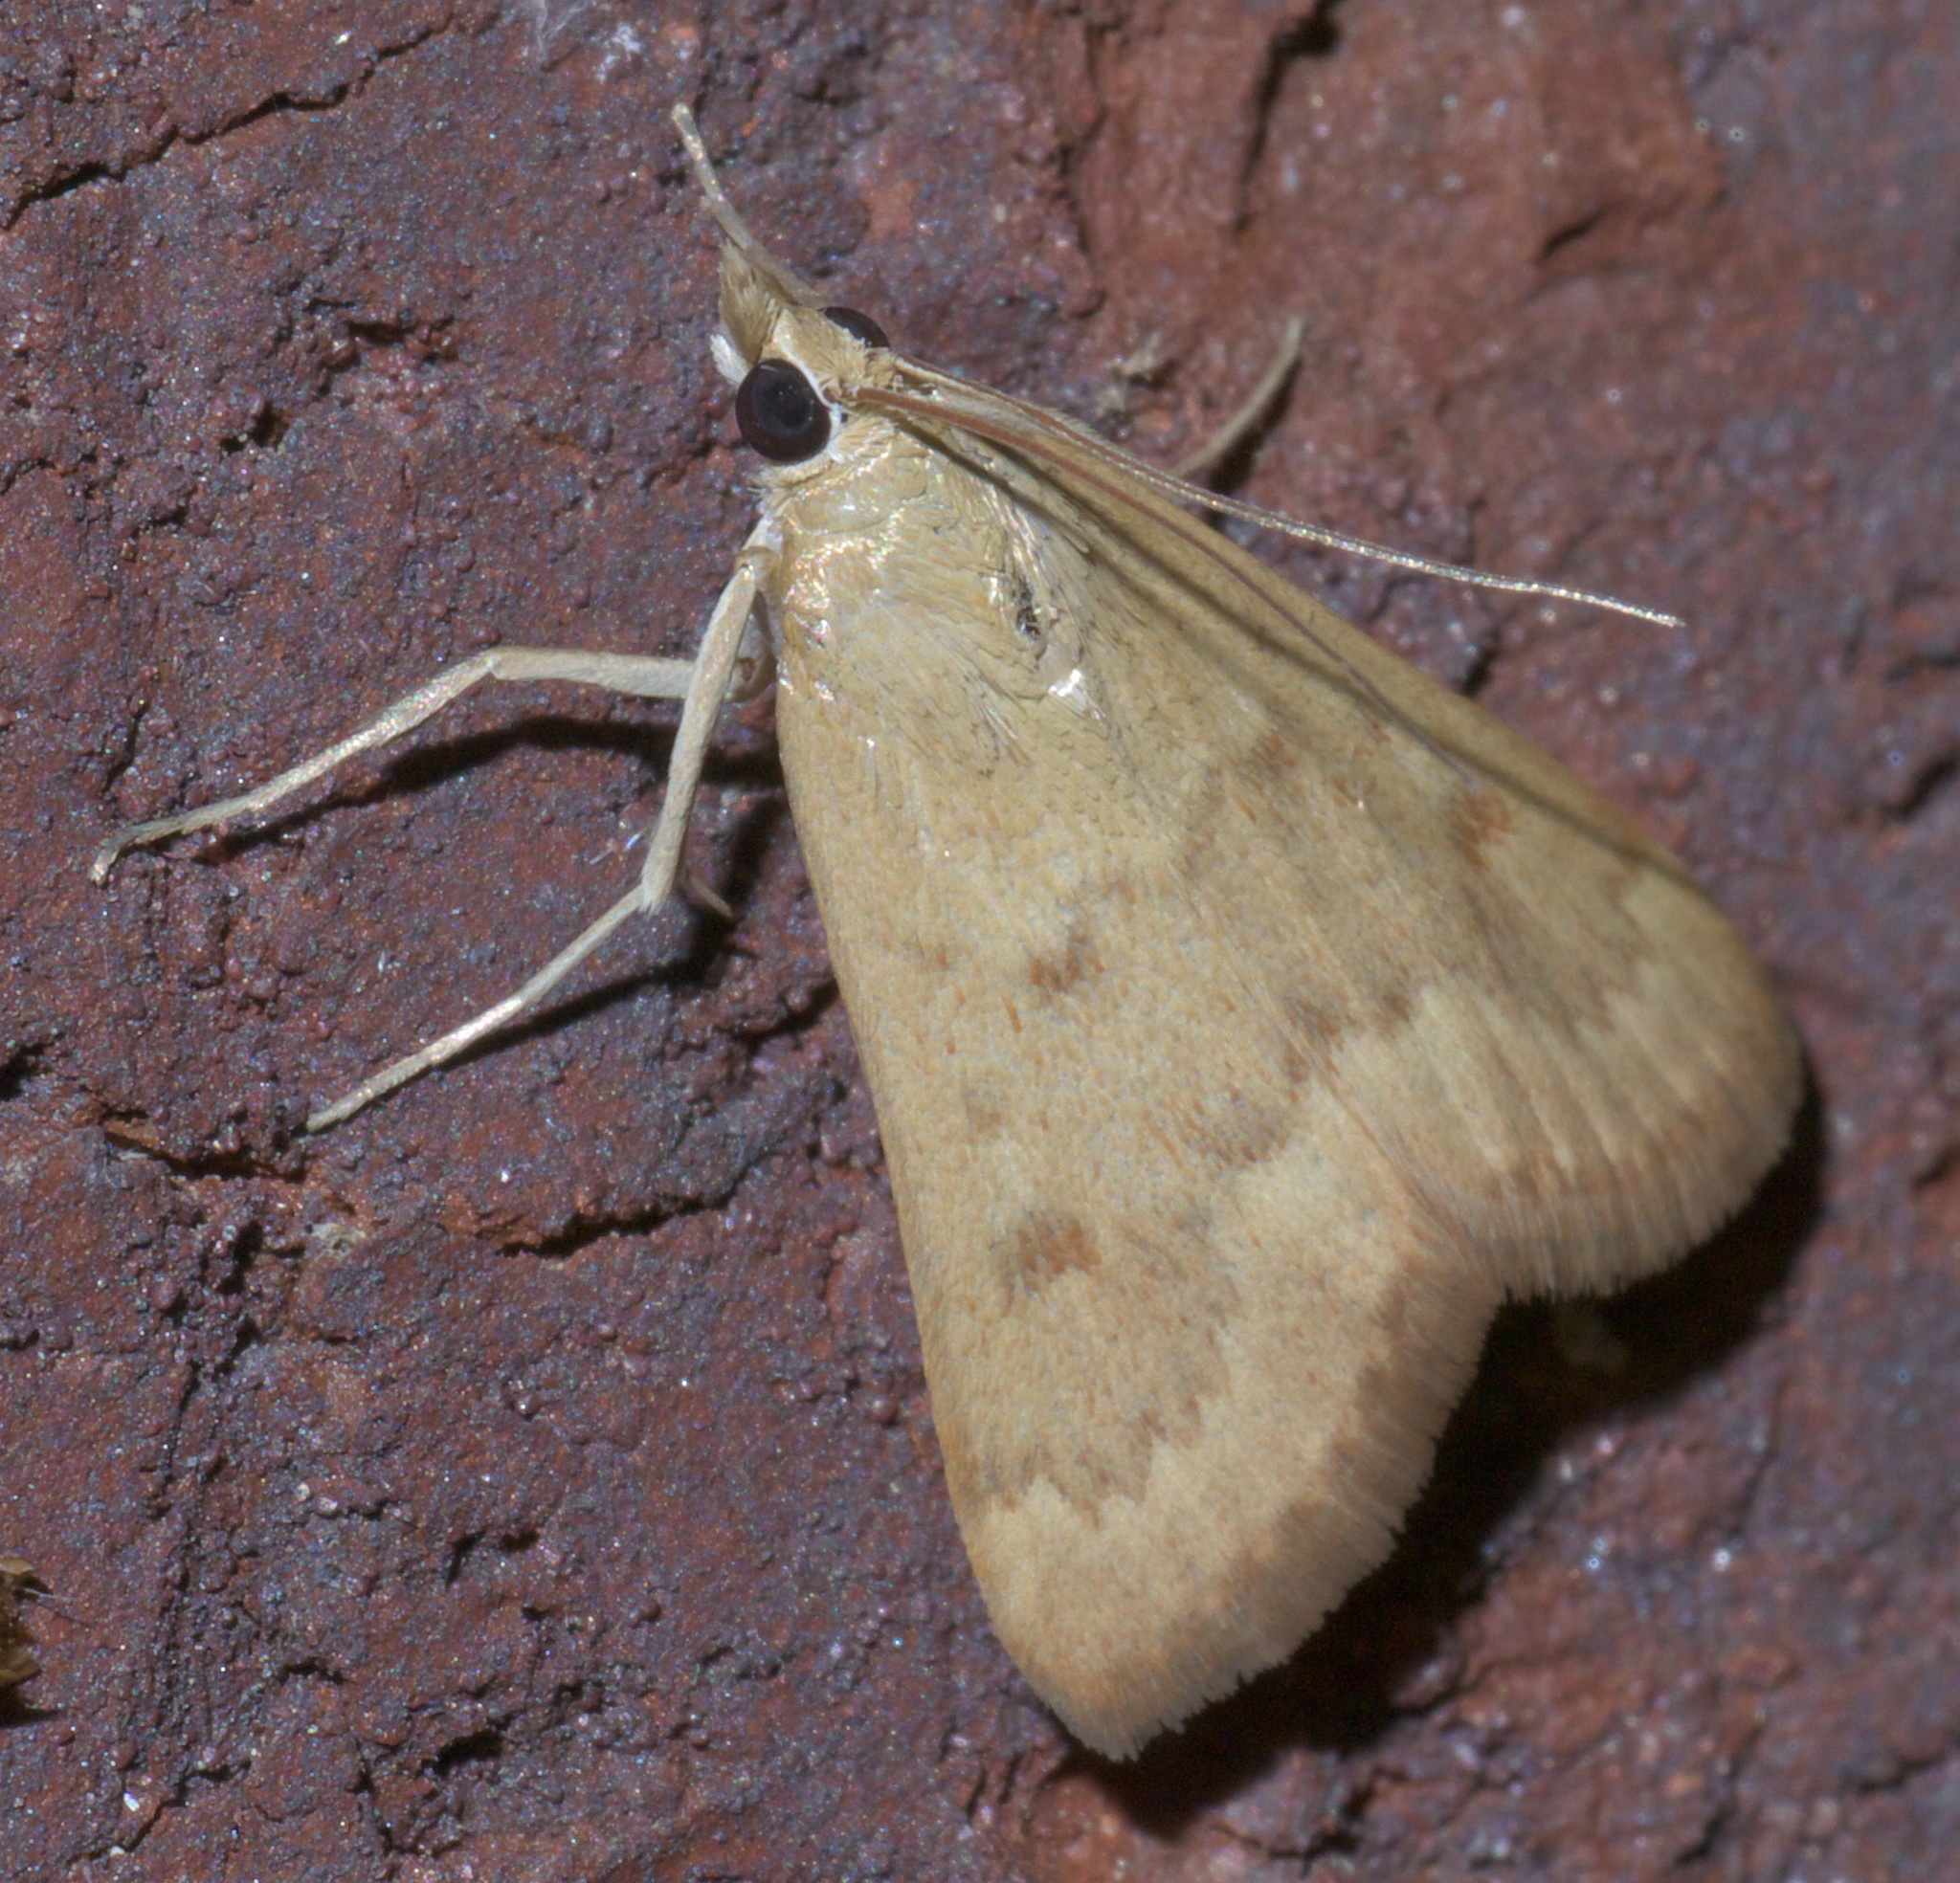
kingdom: Animalia
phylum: Arthropoda
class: Insecta
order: Lepidoptera
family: Crambidae
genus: Achyra
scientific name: Achyra rantalis
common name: Garden webworm
